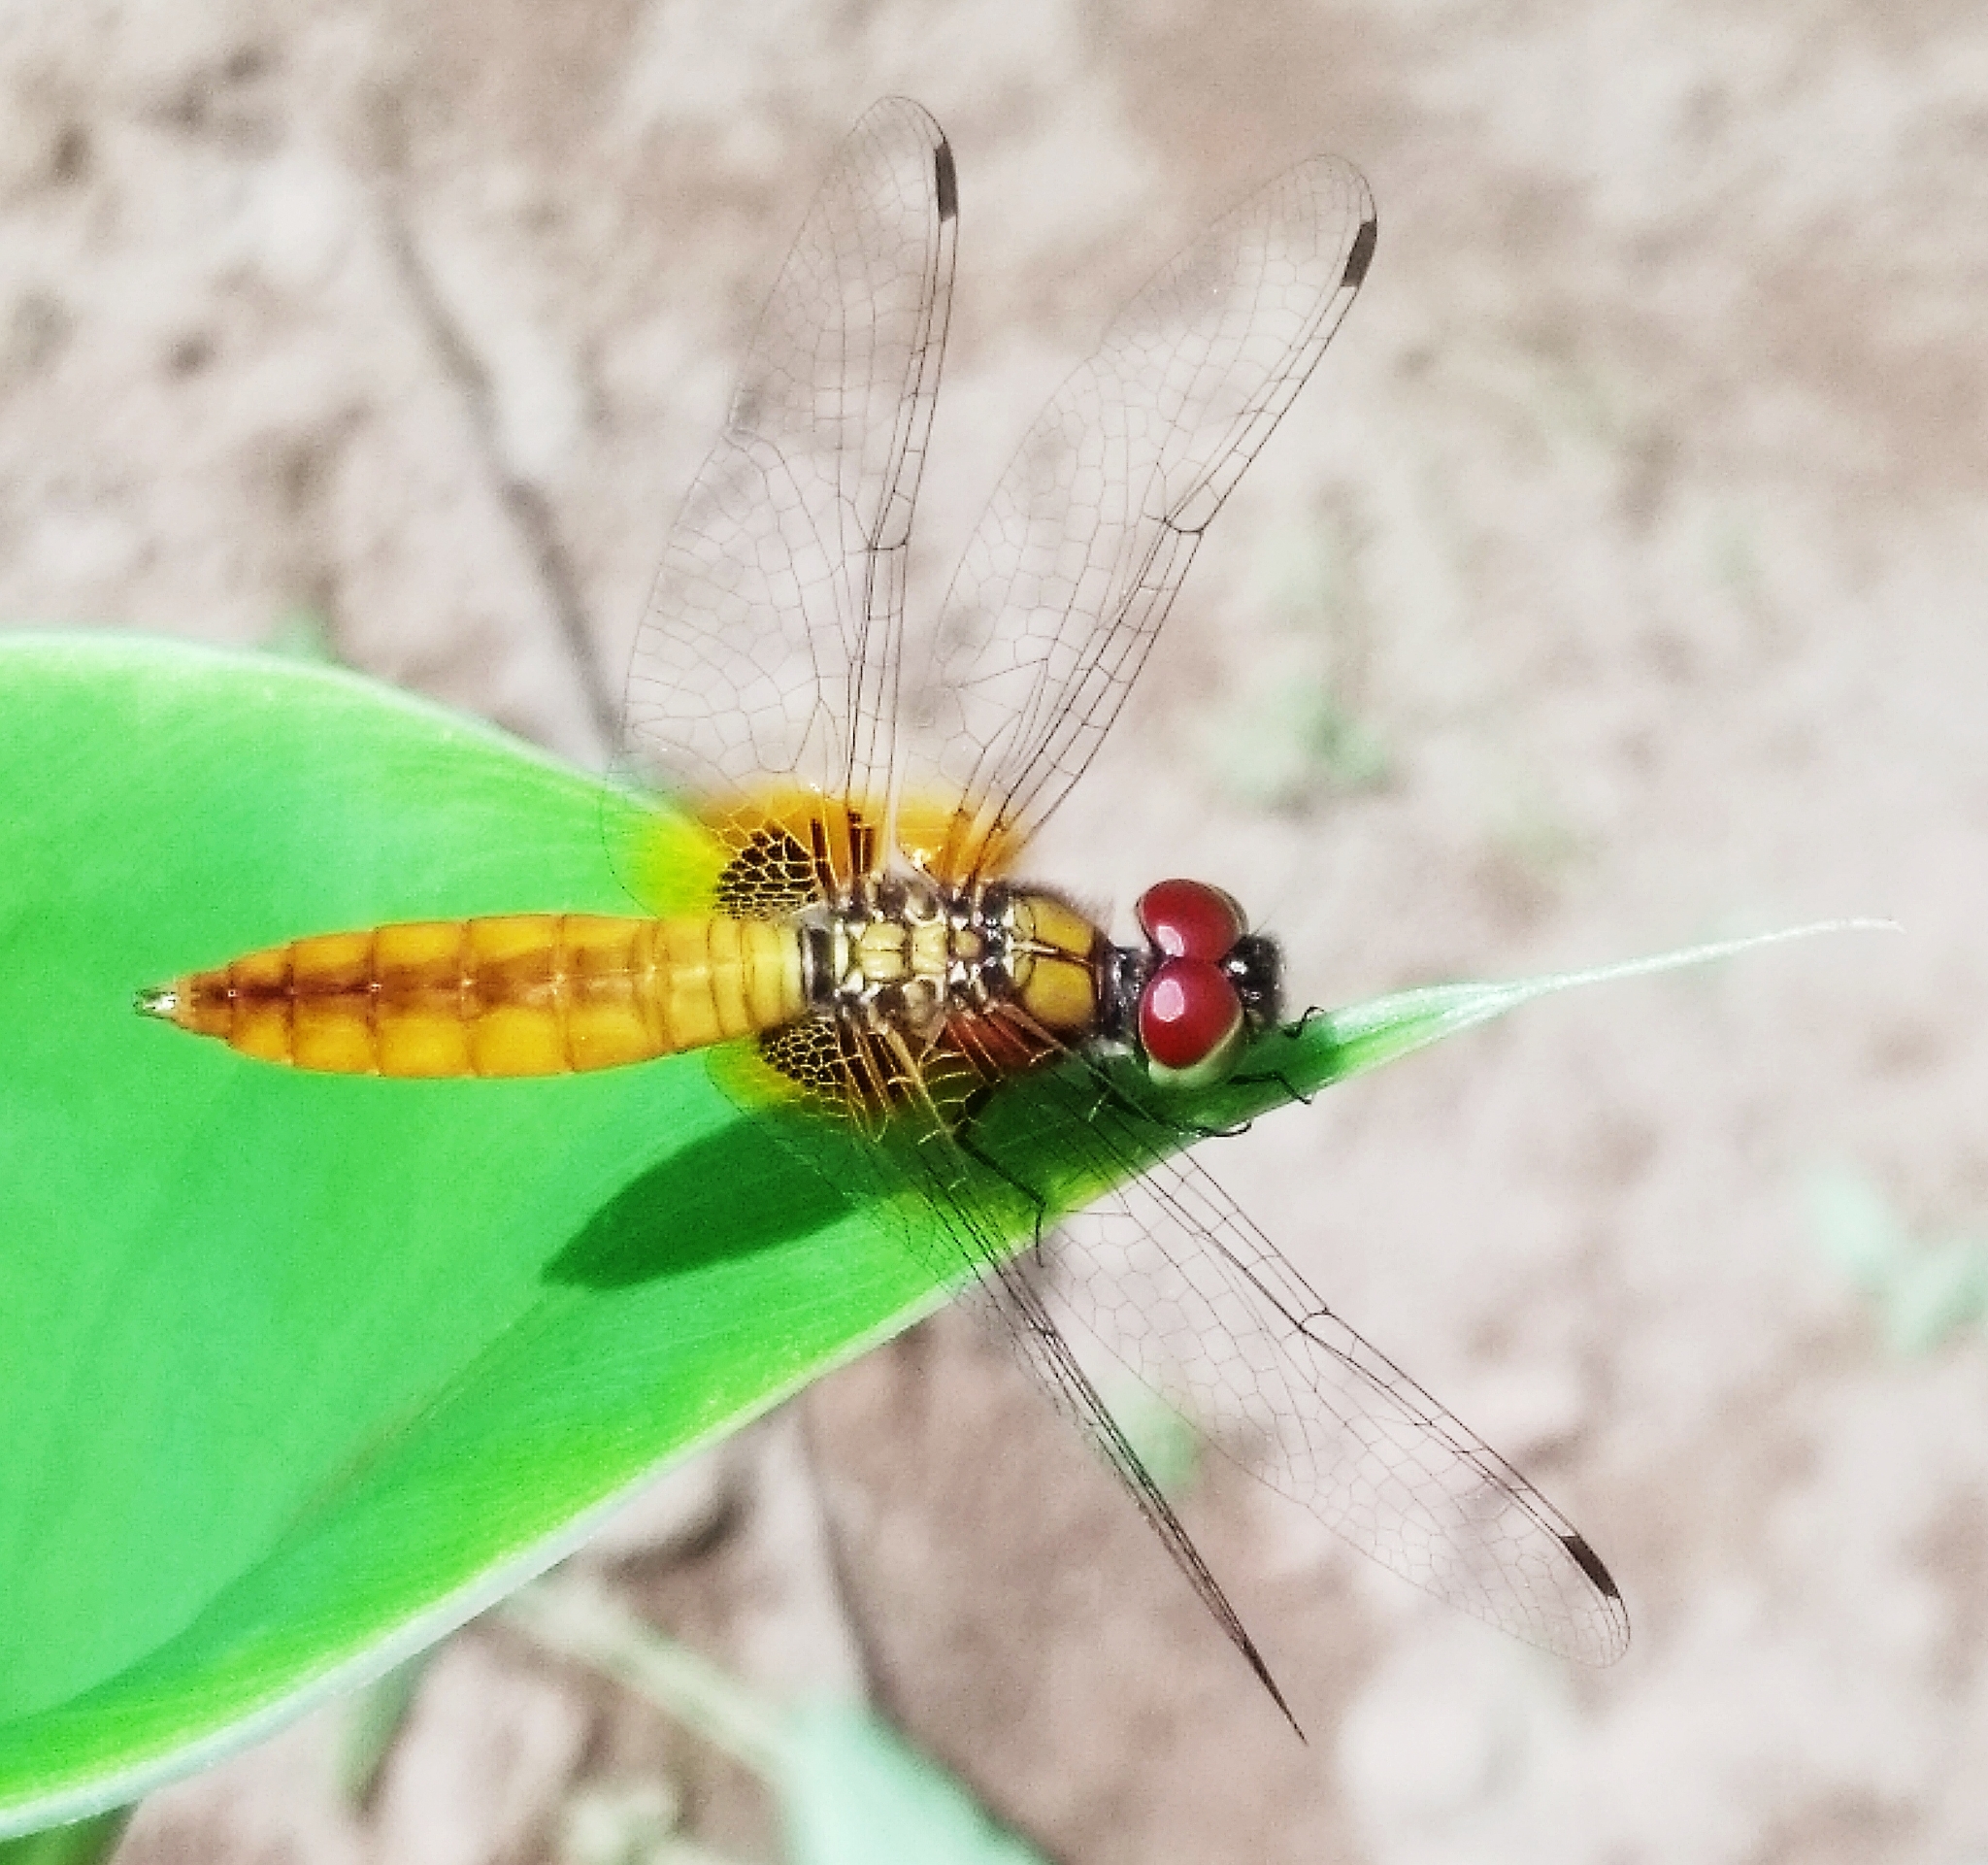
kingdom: Animalia
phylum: Arthropoda
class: Insecta
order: Odonata
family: Libellulidae
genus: Aethriamanta
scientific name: Aethriamanta brevipennis
